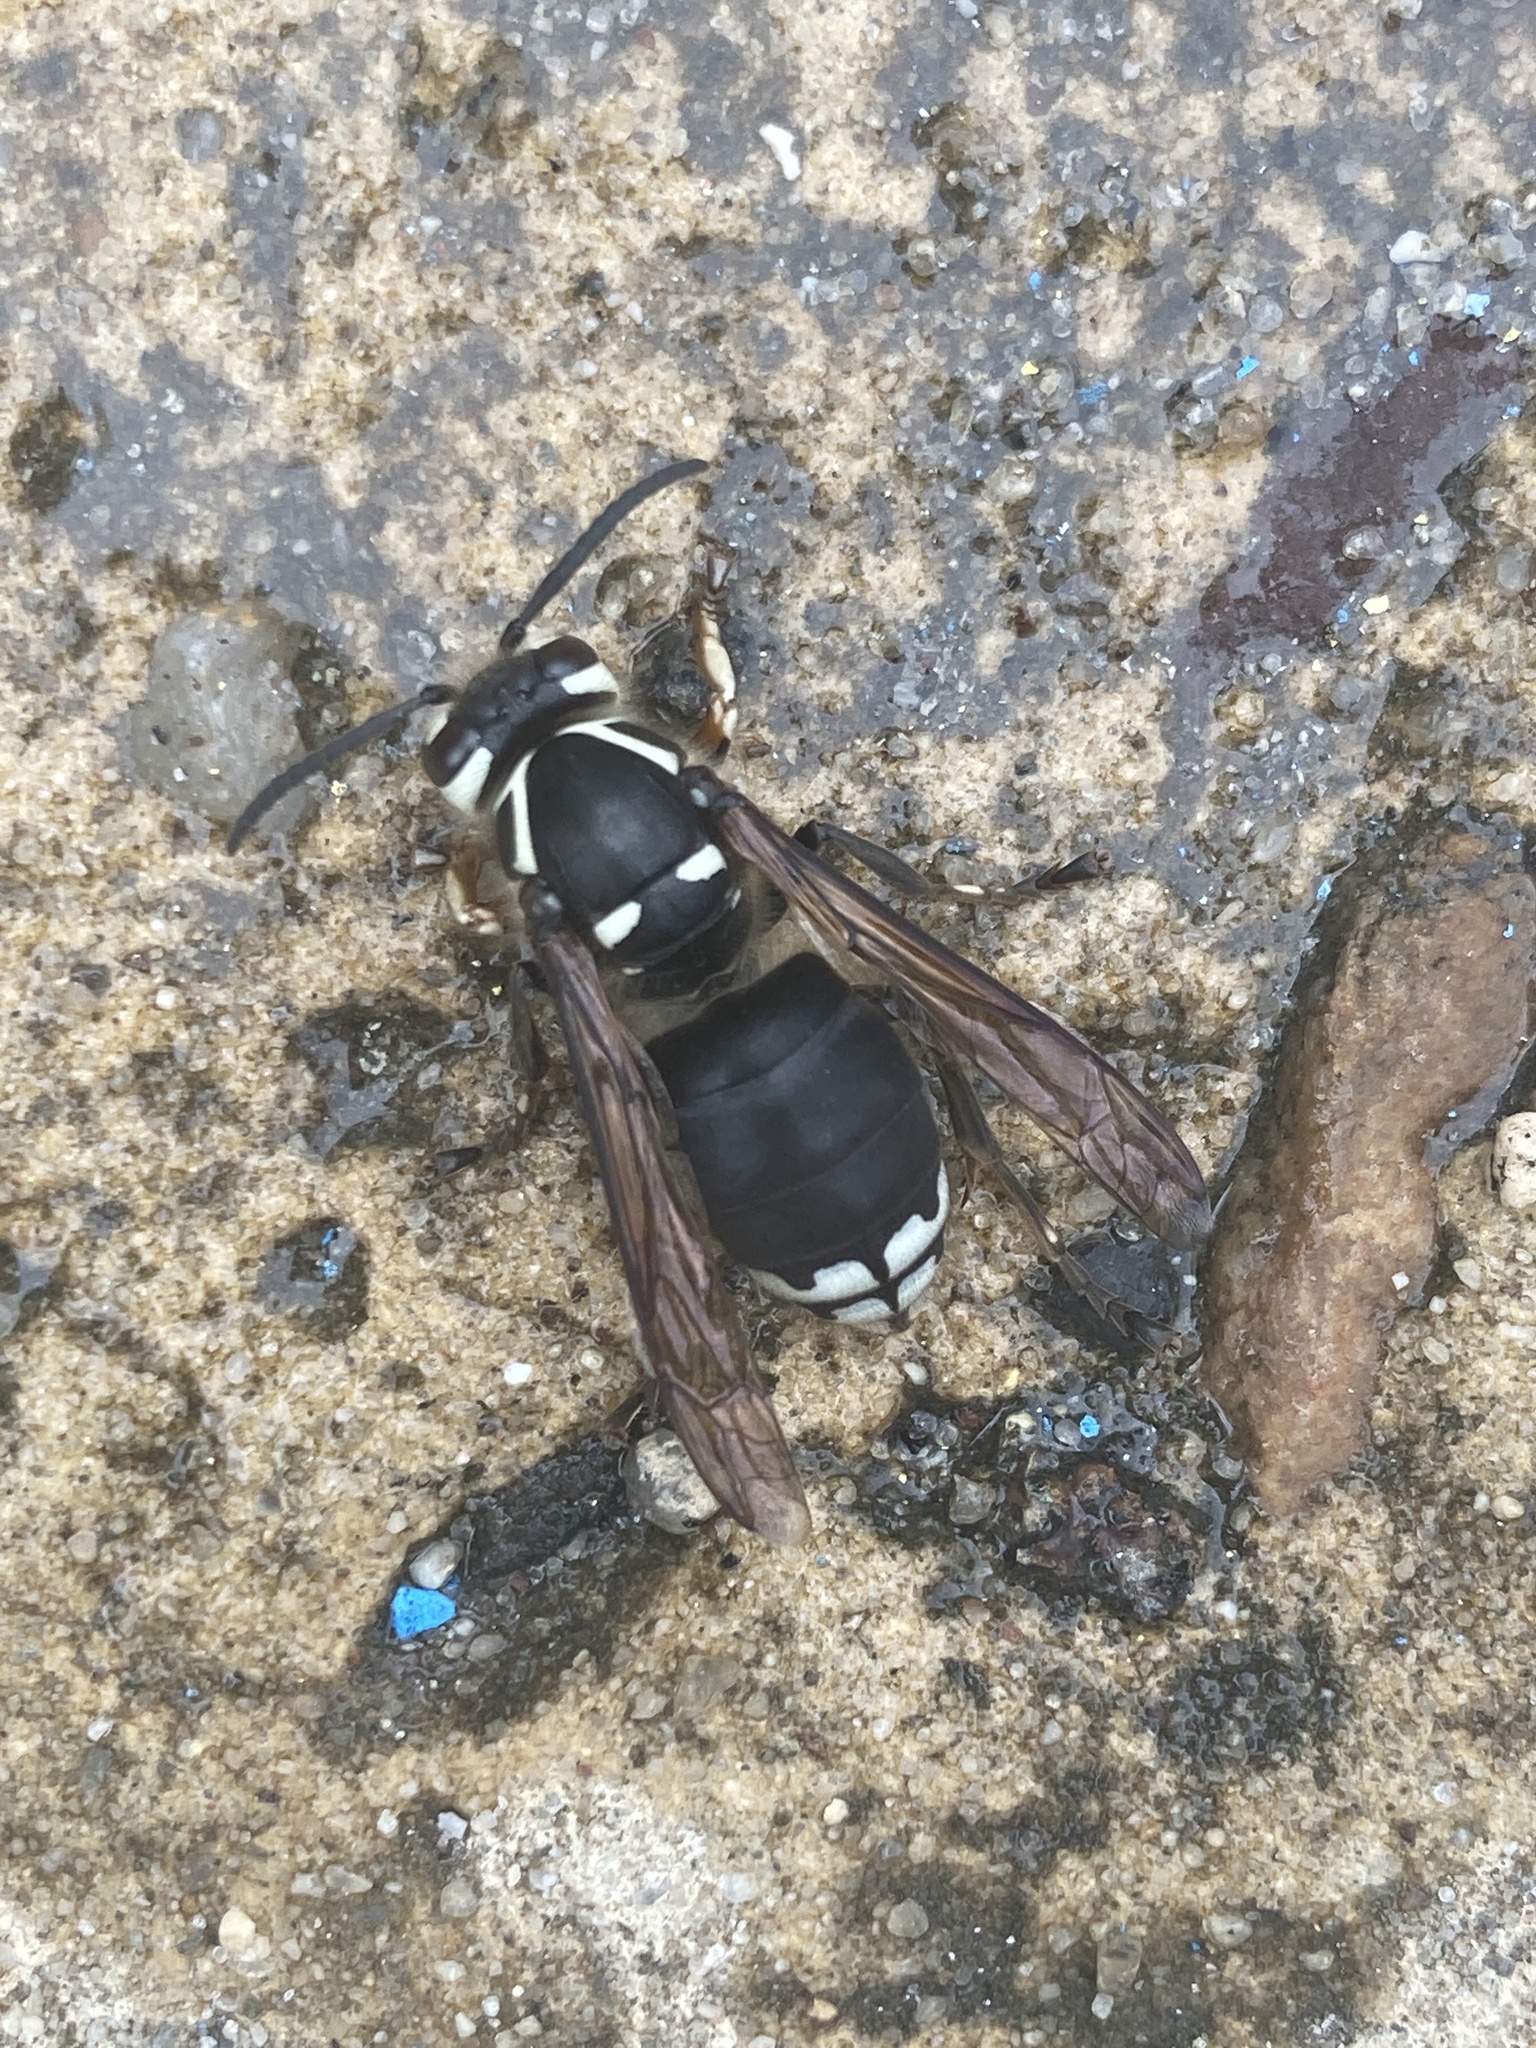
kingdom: Animalia
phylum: Arthropoda
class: Insecta
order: Hymenoptera
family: Vespidae
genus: Dolichovespula
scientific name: Dolichovespula maculata
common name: Bald-faced hornet
